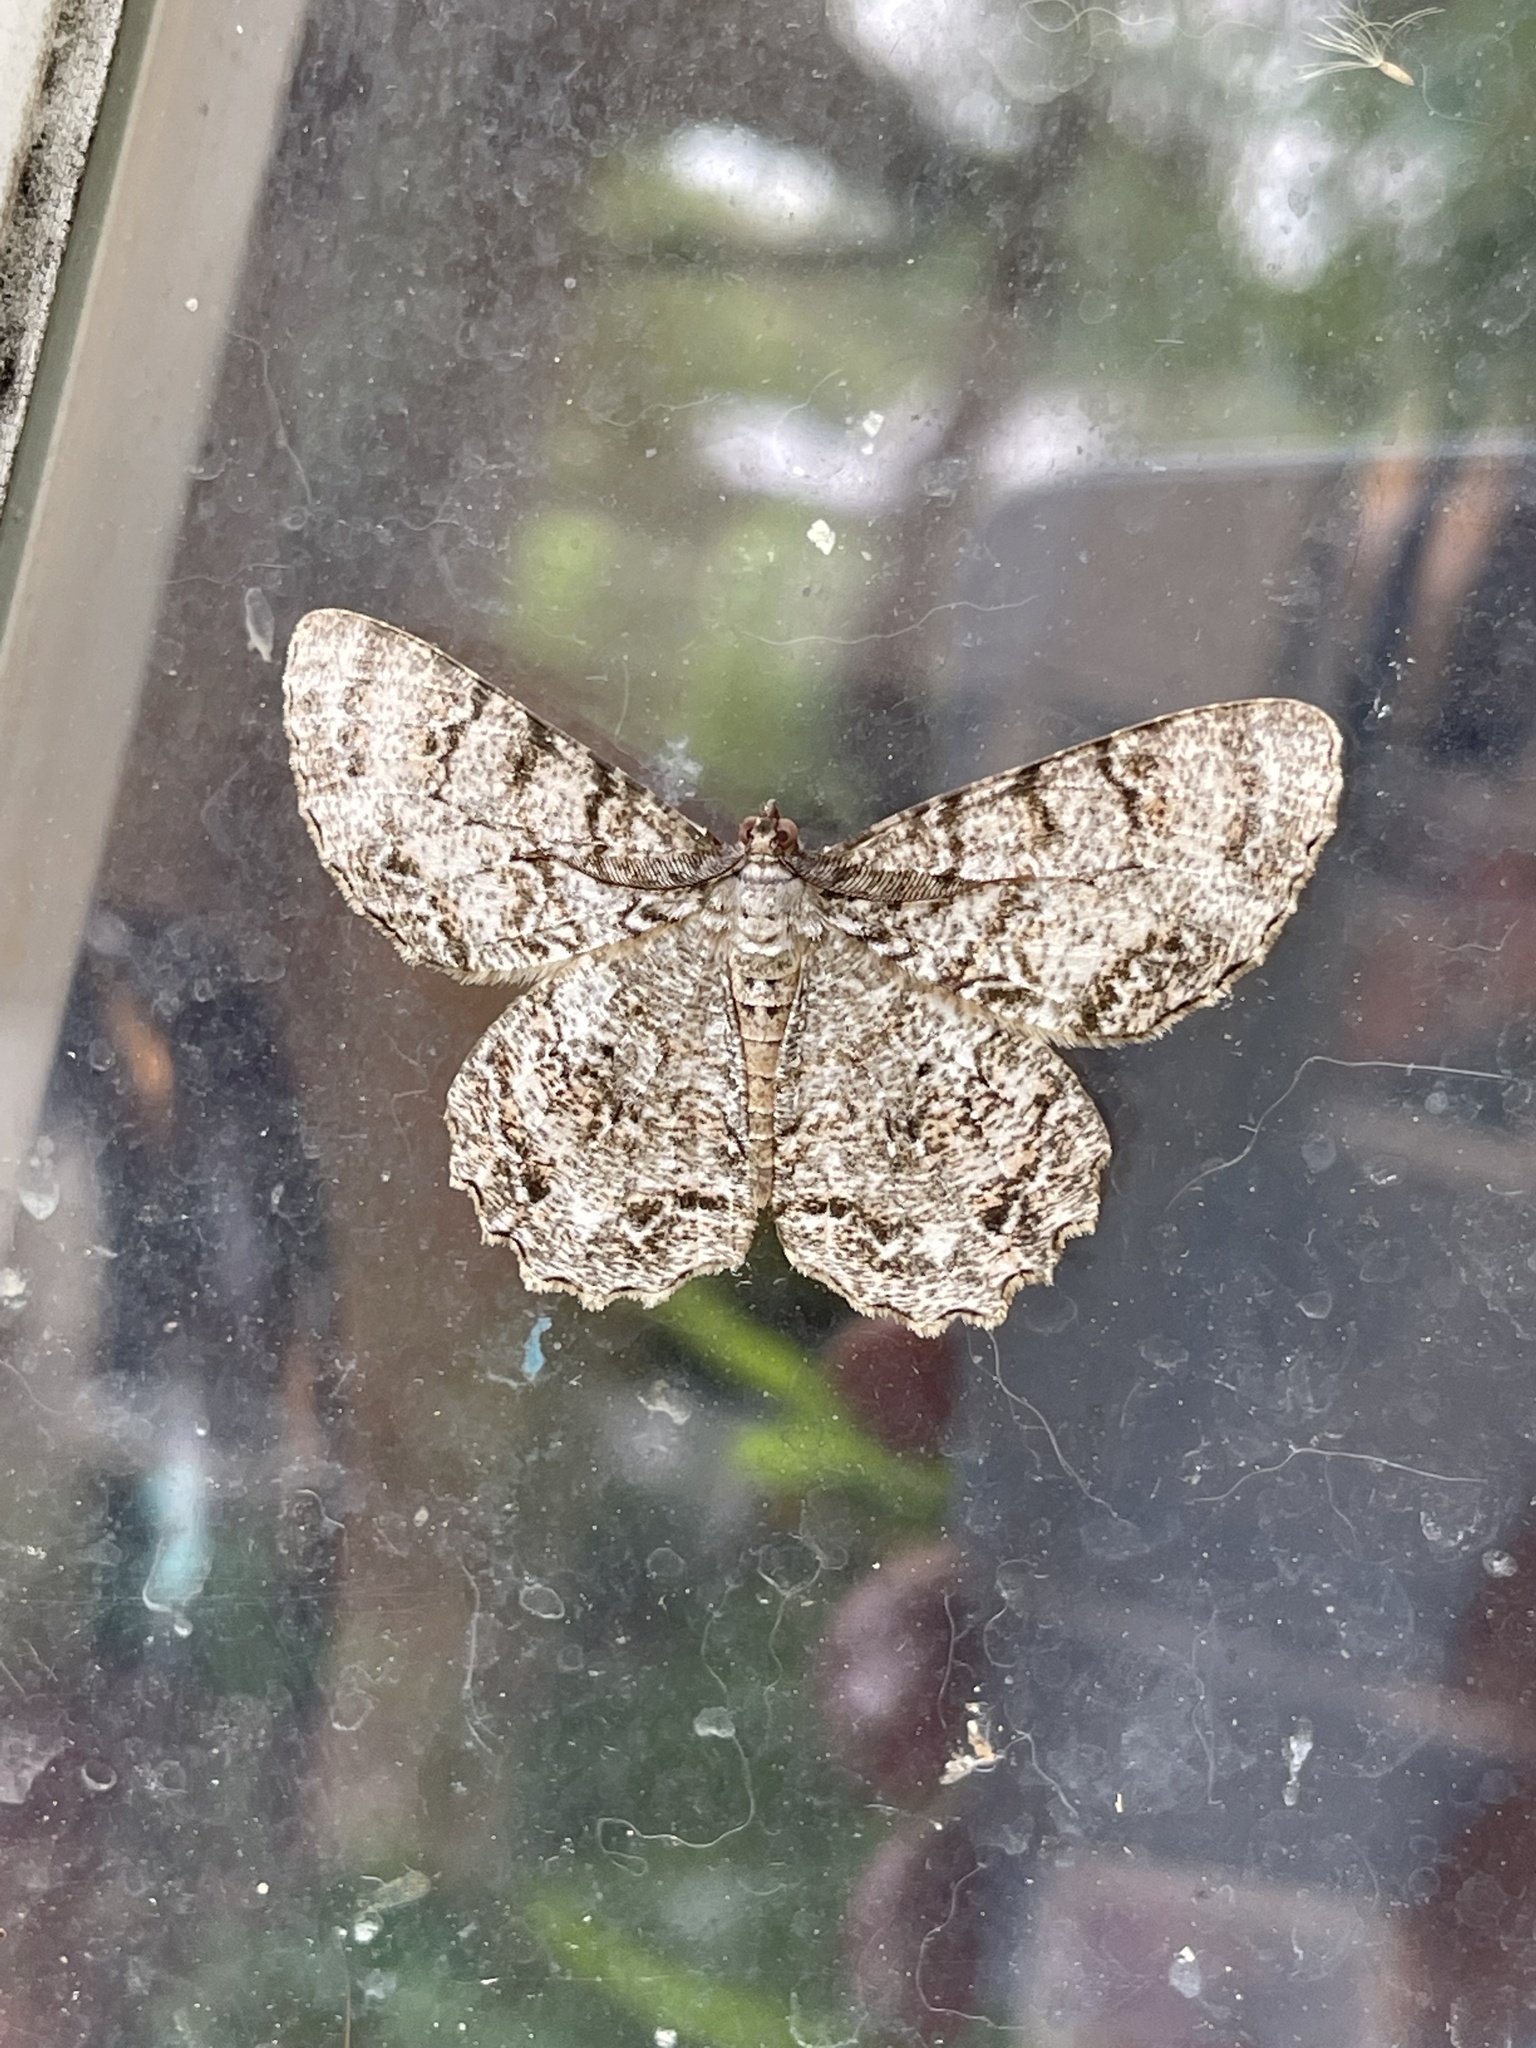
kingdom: Animalia
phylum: Arthropoda
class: Insecta
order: Lepidoptera
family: Geometridae
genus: Epimecis
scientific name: Epimecis hortaria
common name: Tulip-tree beauty
